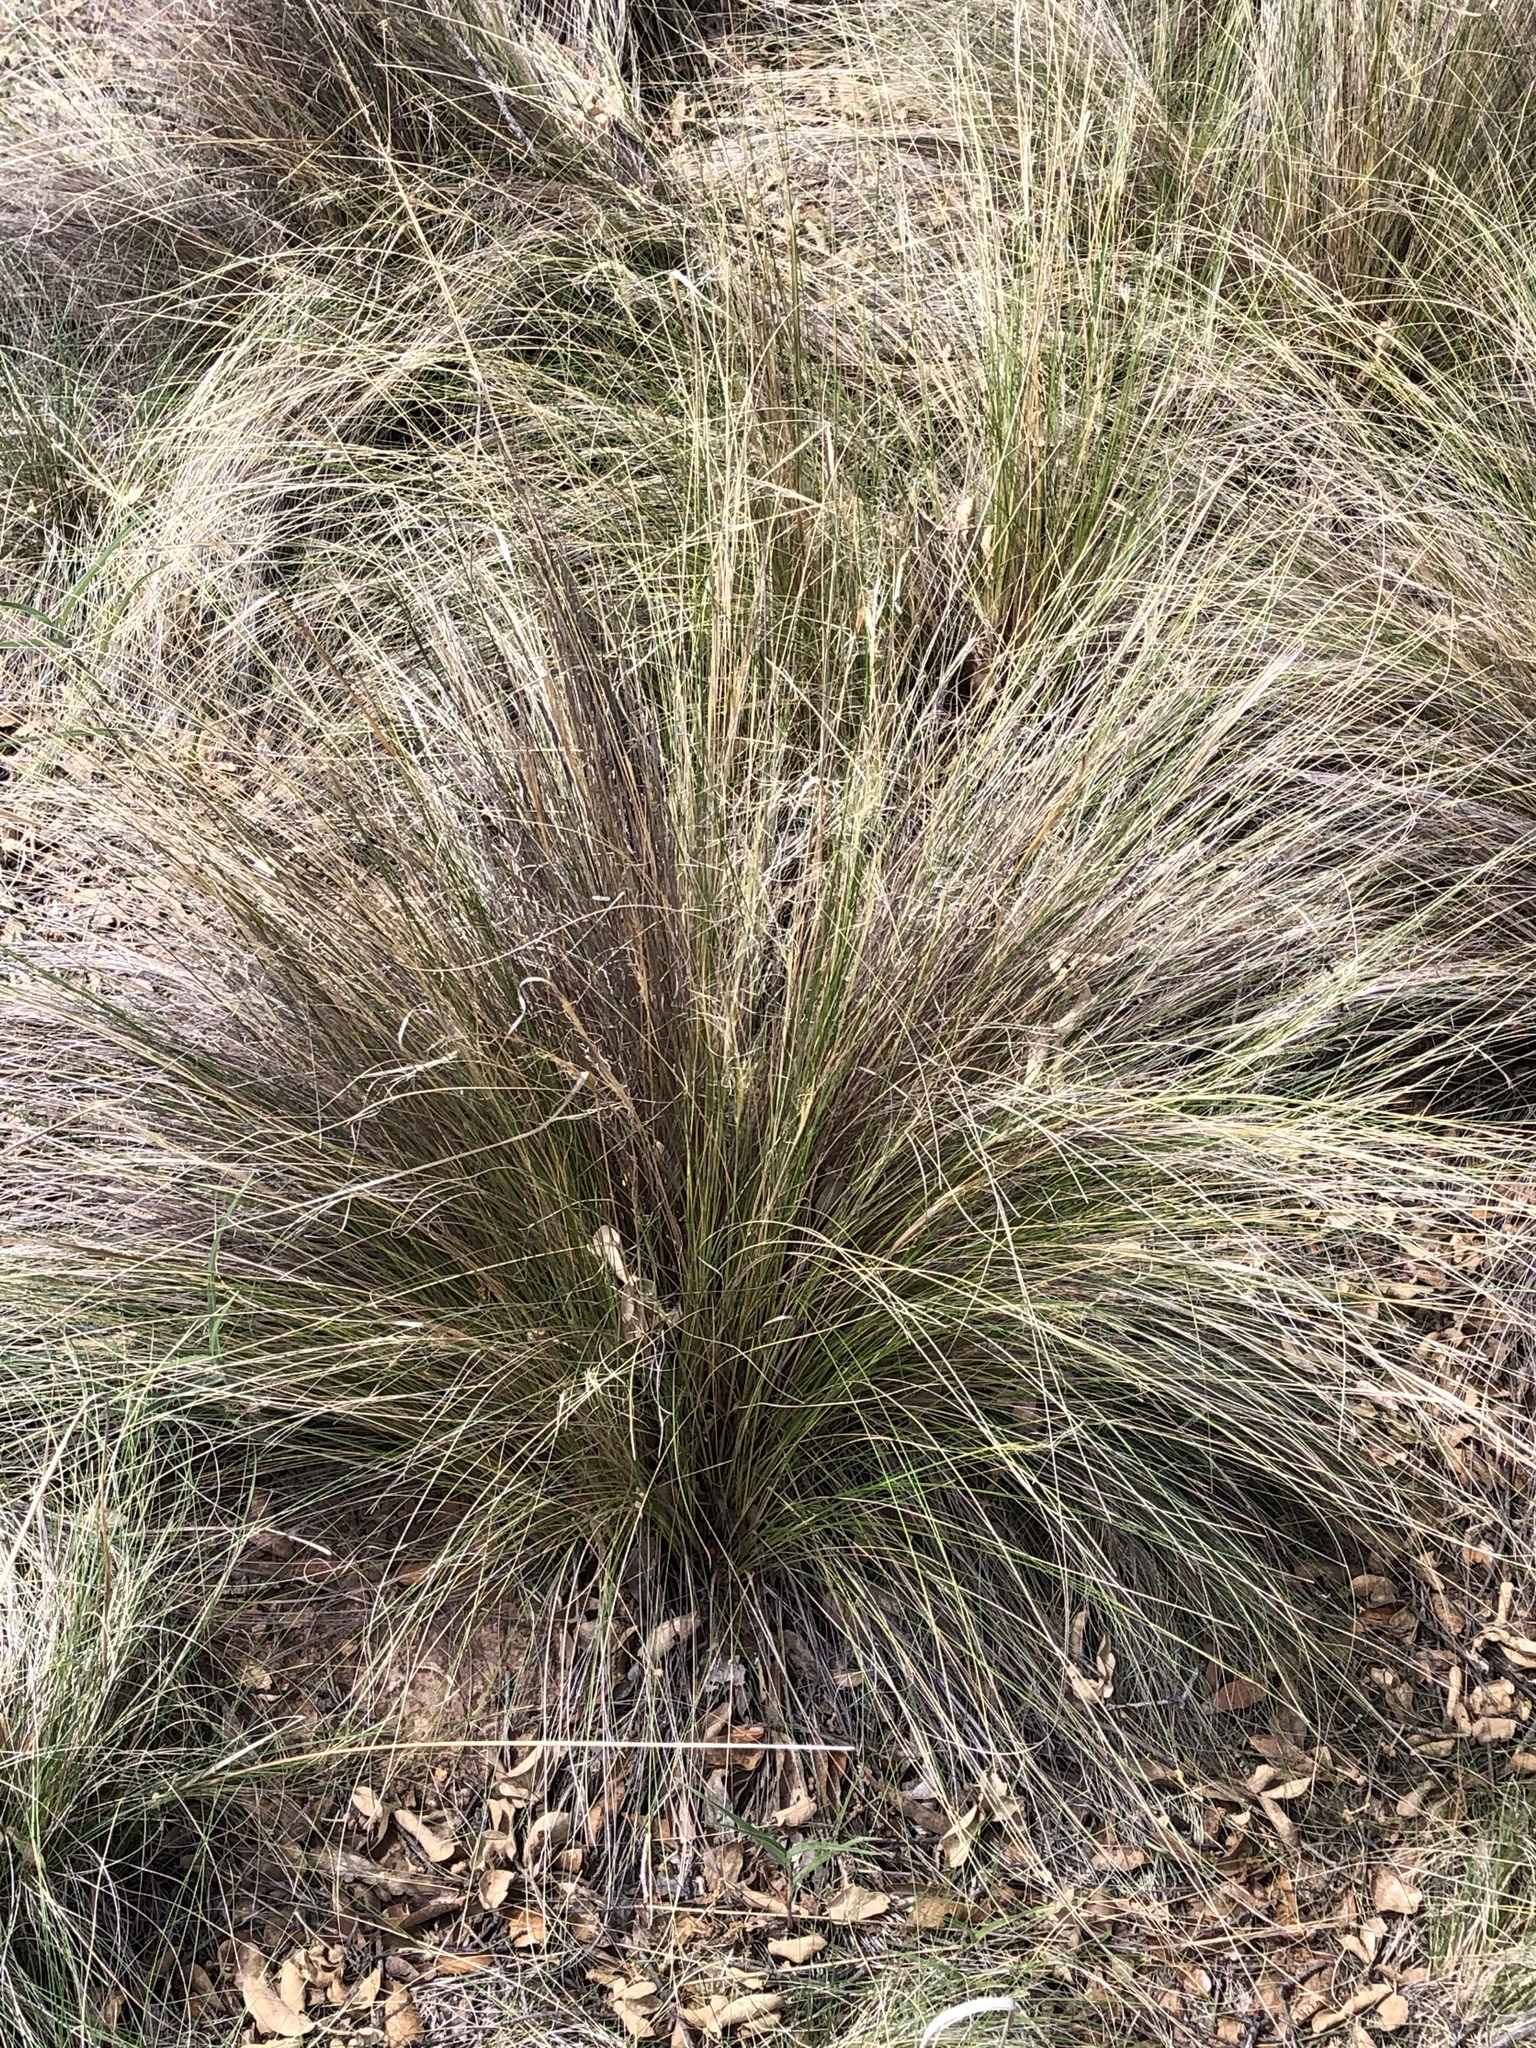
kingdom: Plantae
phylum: Tracheophyta
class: Liliopsida
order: Poales
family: Poaceae
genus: Nassella
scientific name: Nassella tenuissima
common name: Argentine needlegrass
